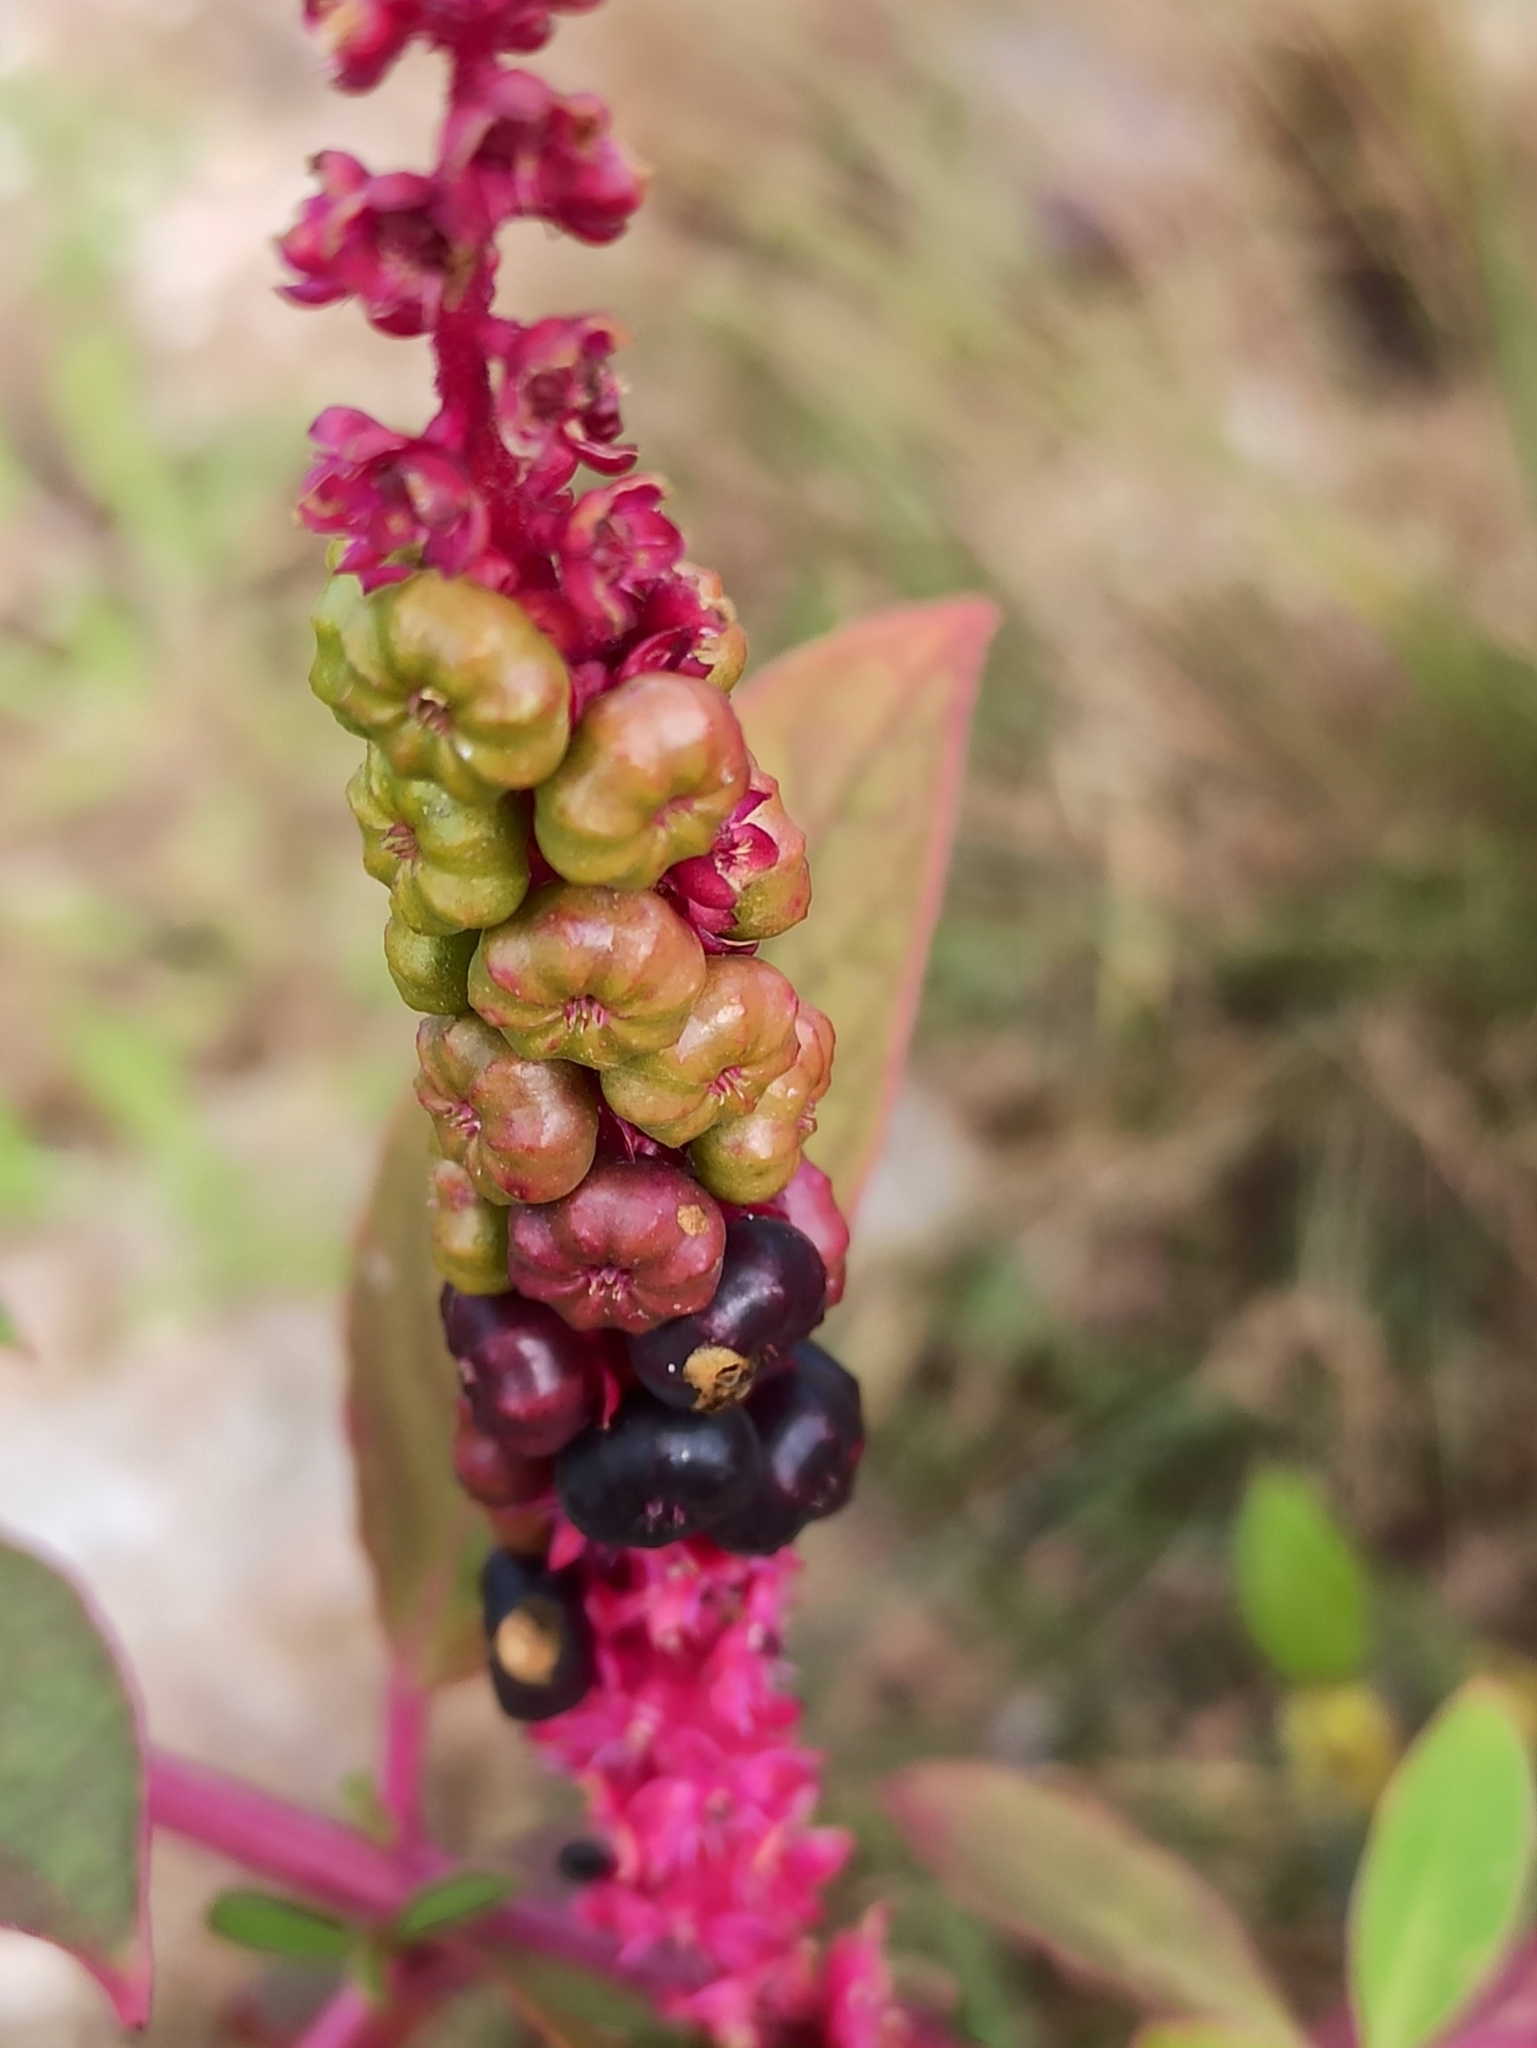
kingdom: Plantae
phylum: Tracheophyta
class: Magnoliopsida
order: Caryophyllales
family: Phytolaccaceae
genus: Phytolacca
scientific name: Phytolacca icosandra
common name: Button pokeweed
